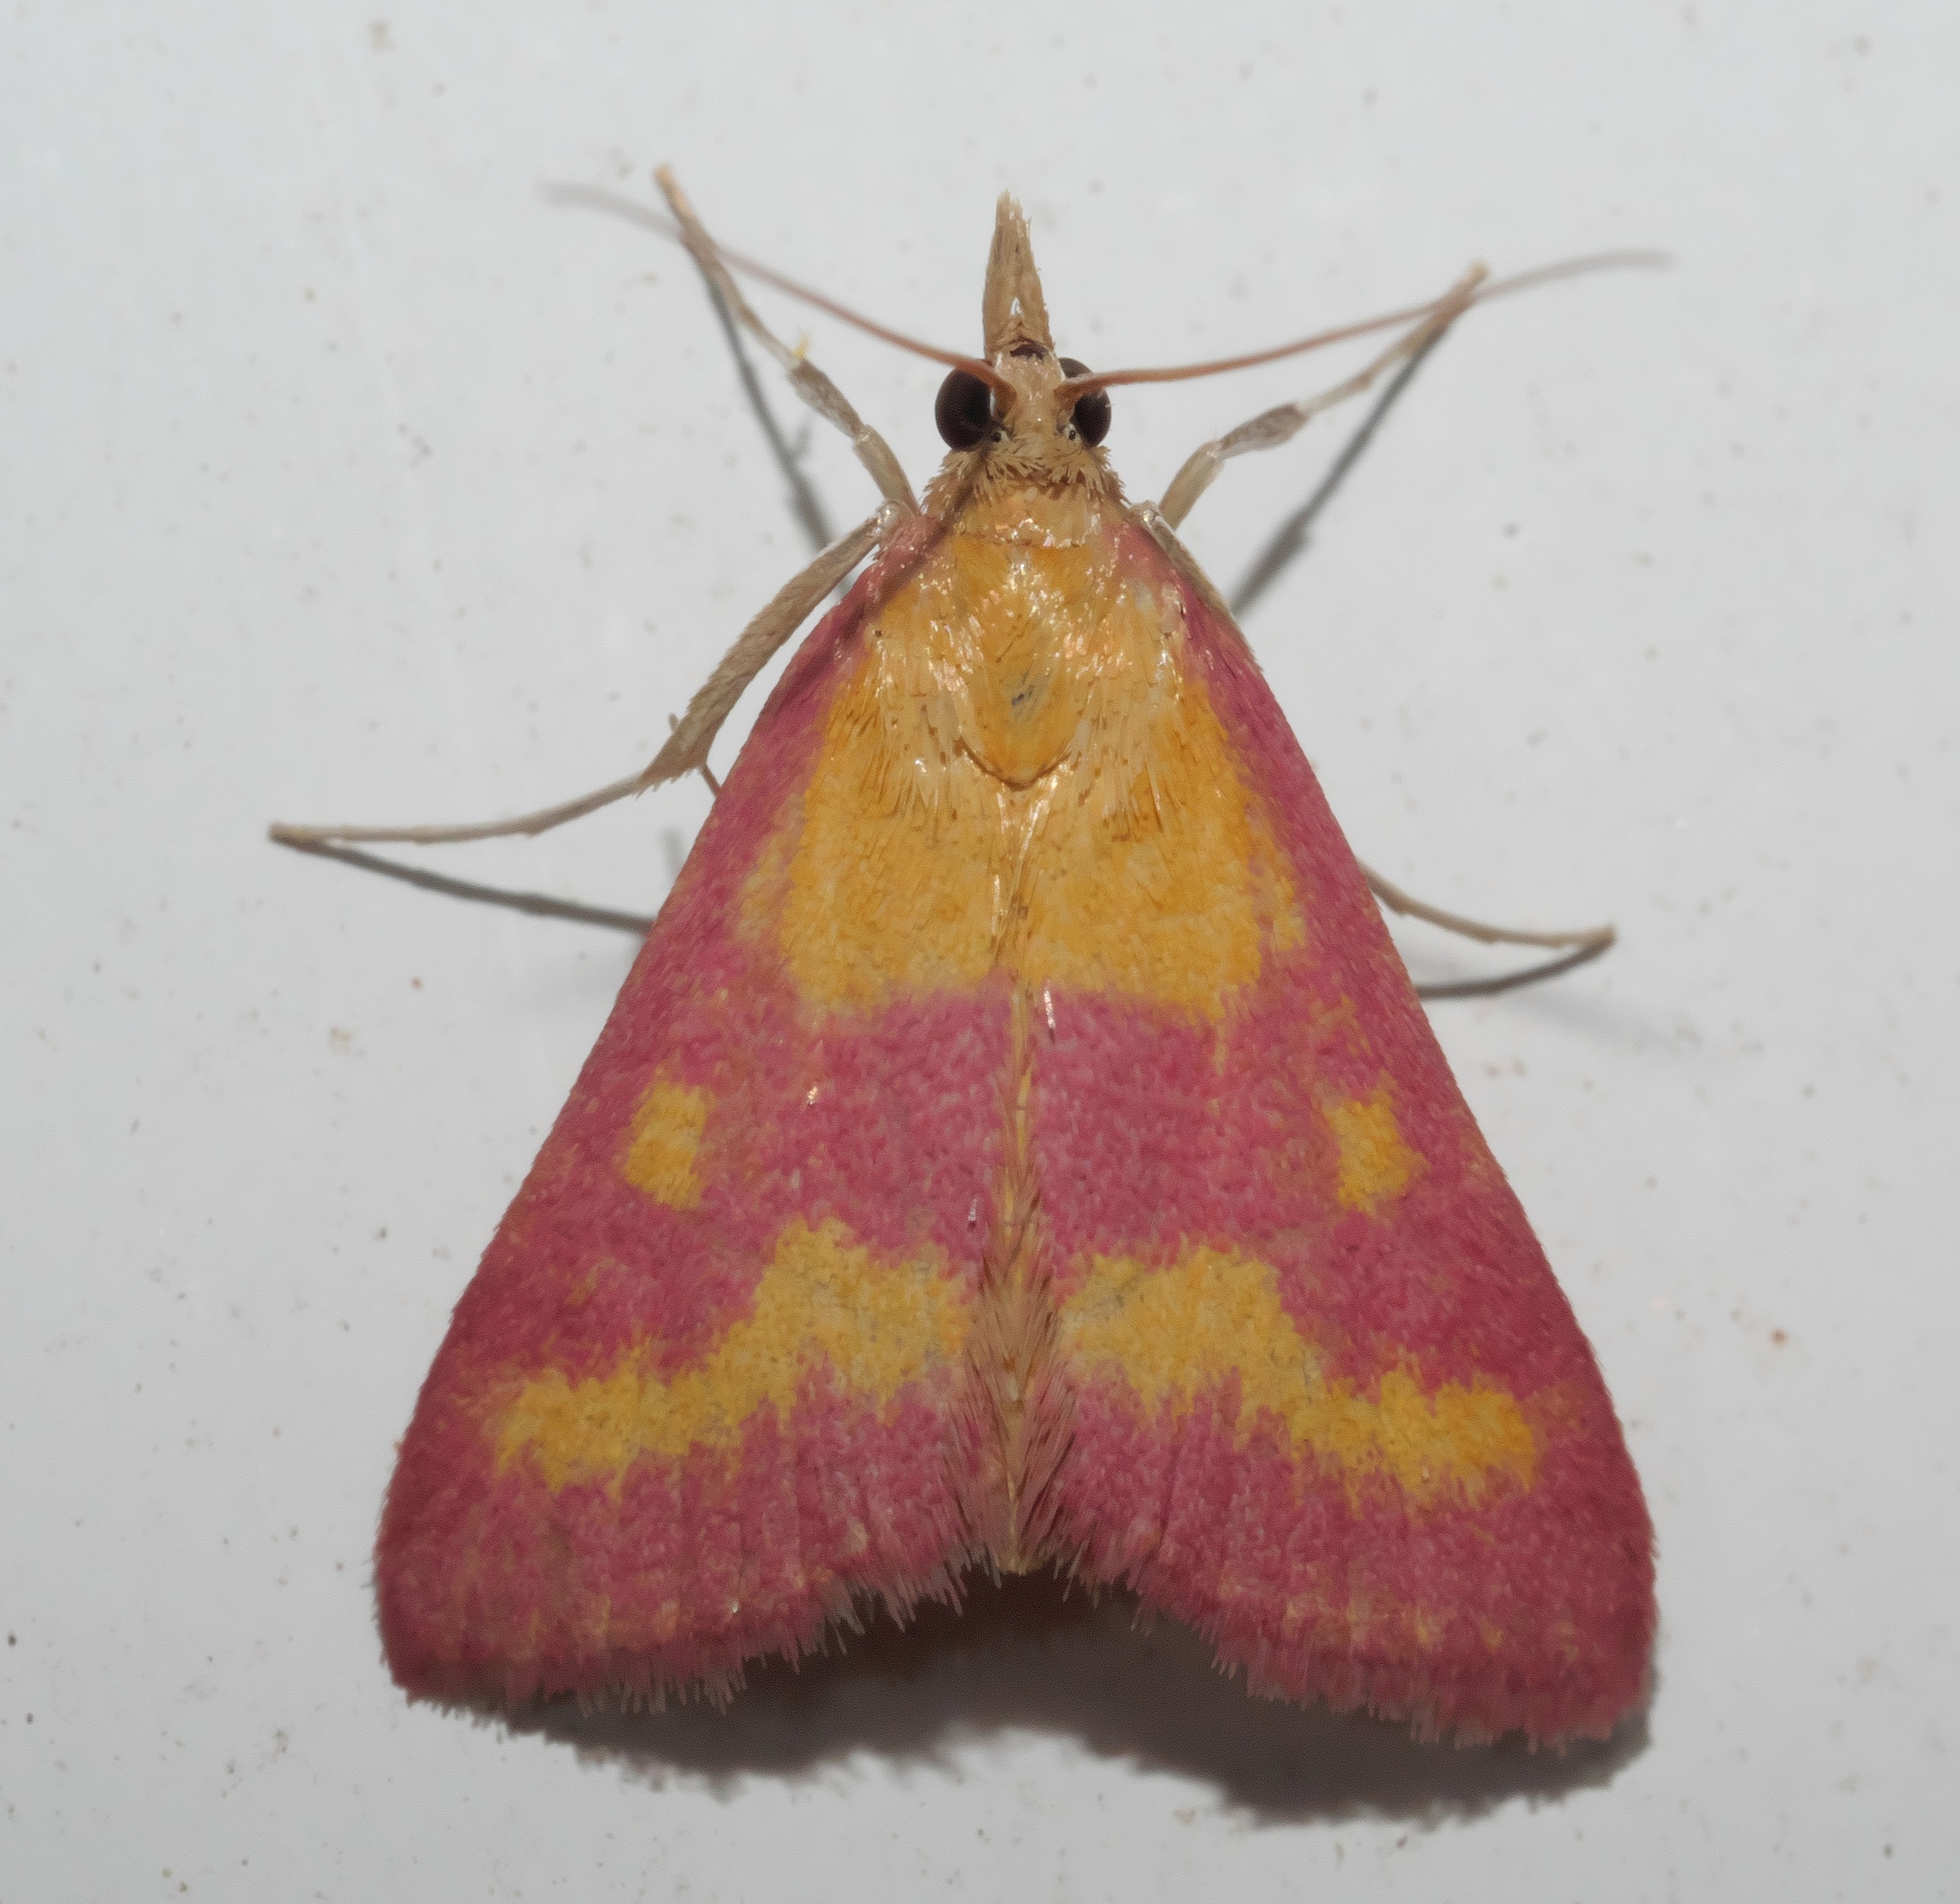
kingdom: Animalia
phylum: Arthropoda
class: Insecta
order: Lepidoptera
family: Crambidae
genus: Pyrausta
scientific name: Pyrausta laticlavia
